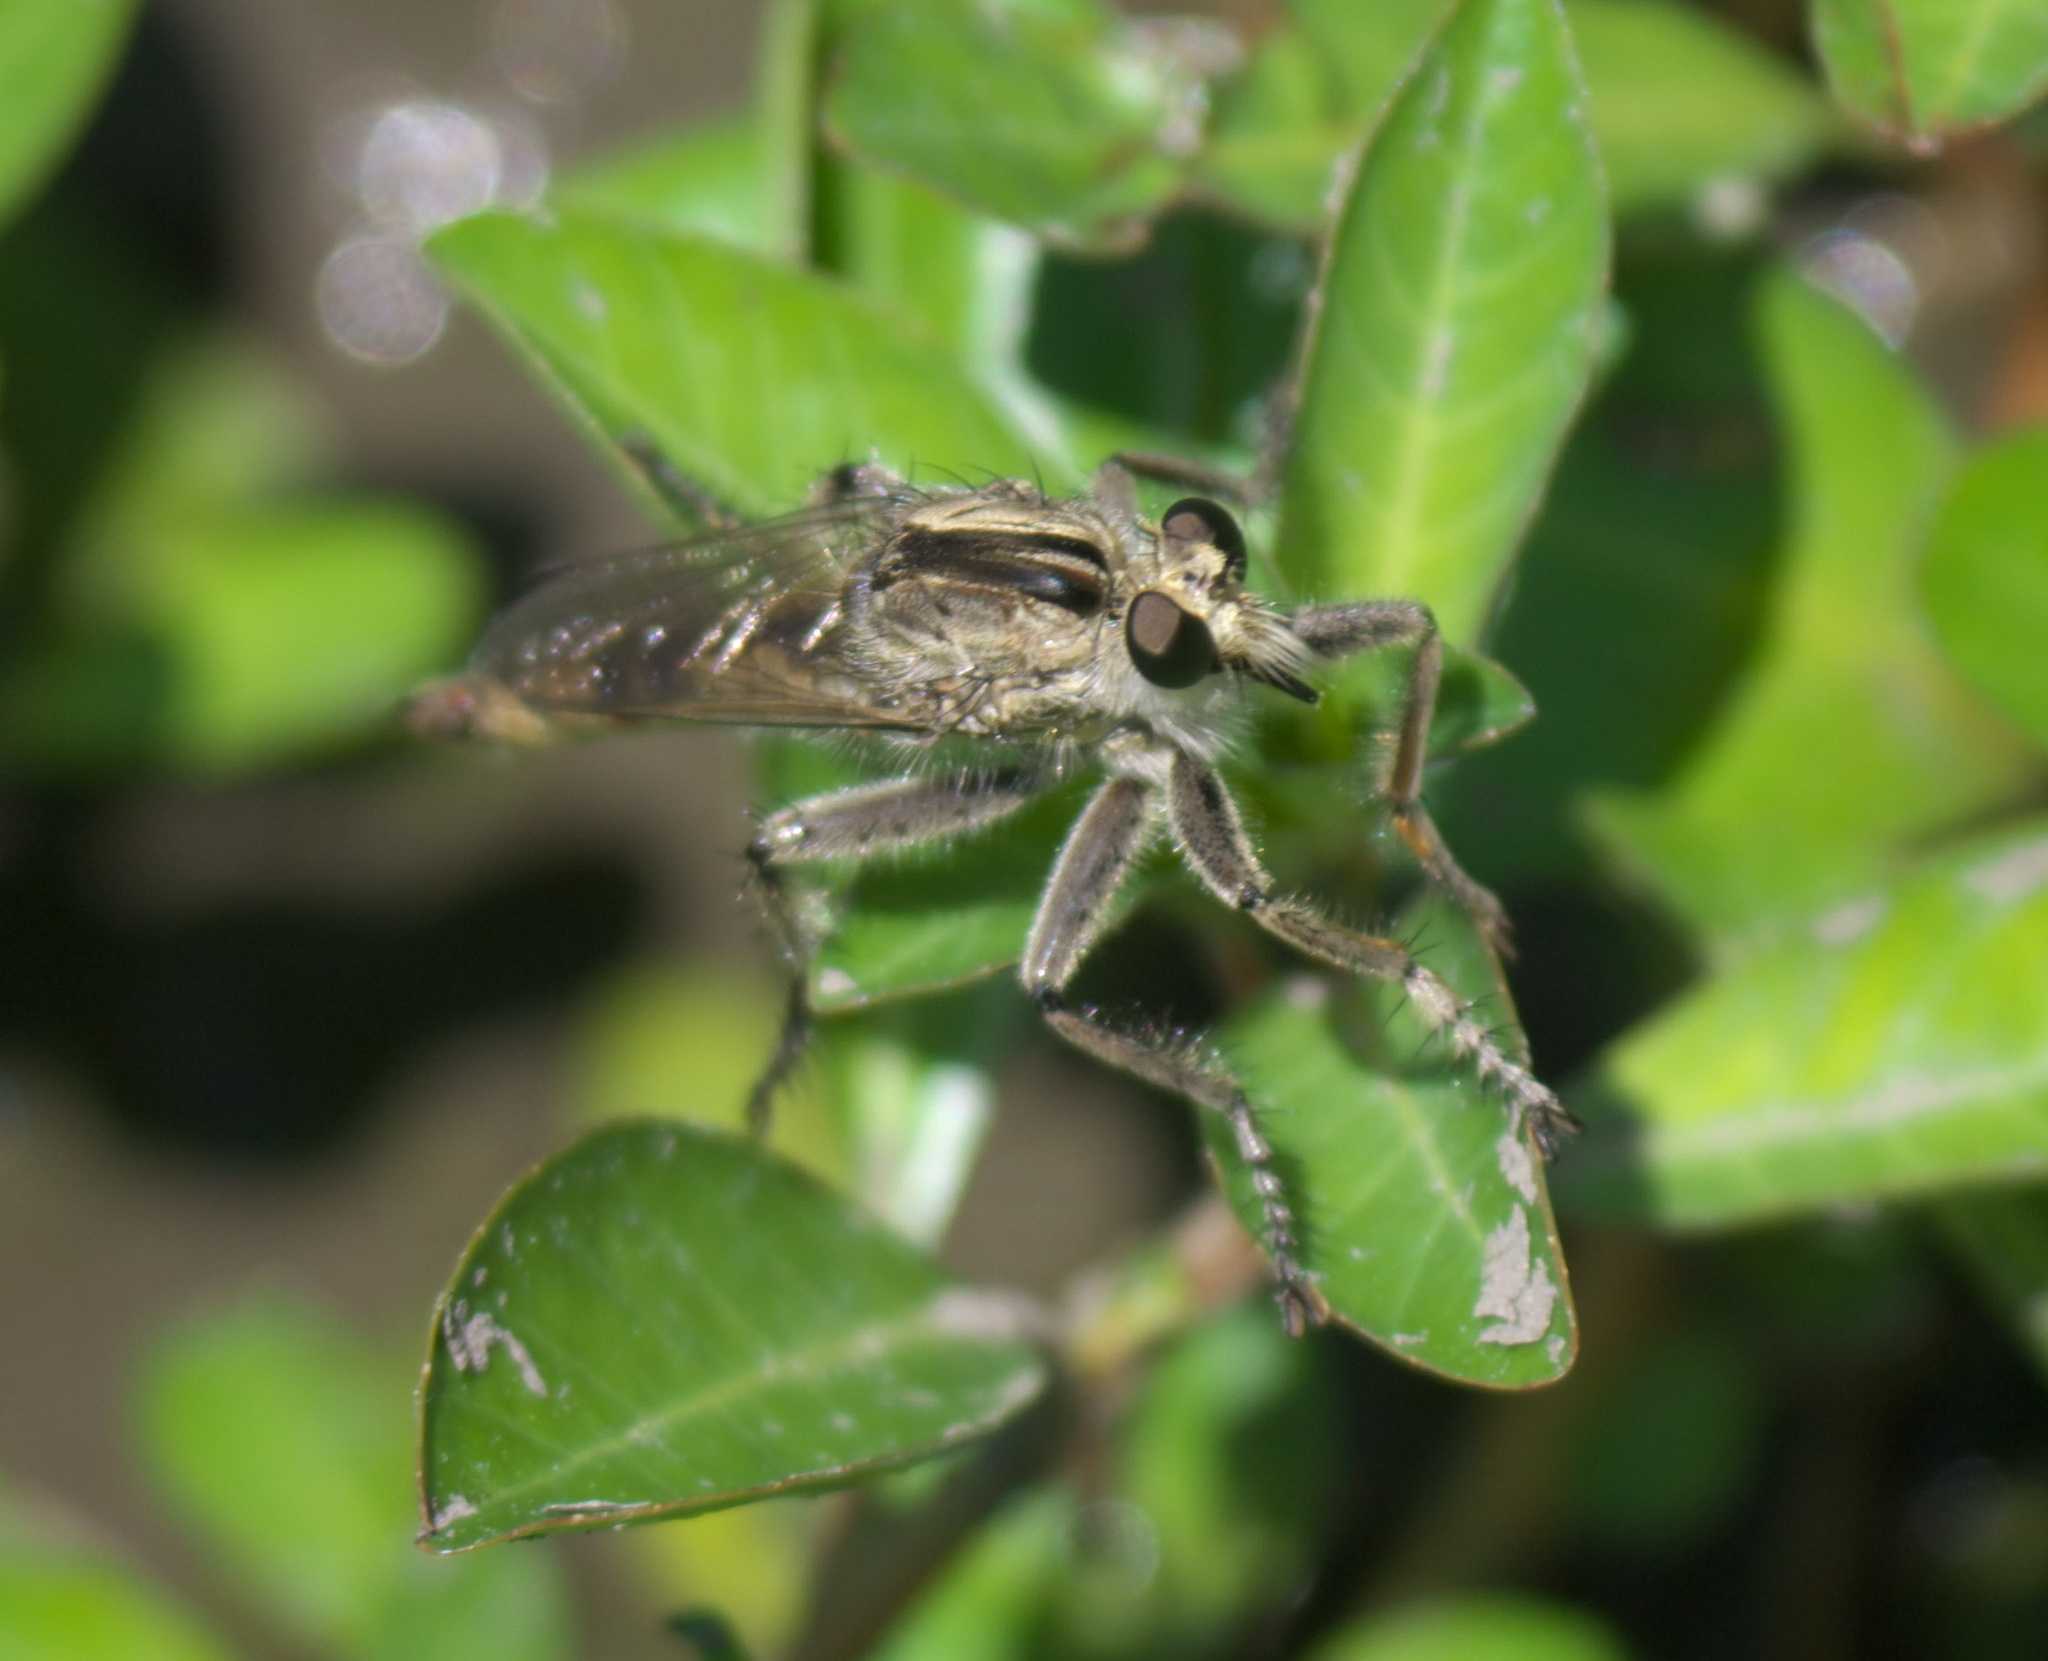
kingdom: Animalia
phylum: Arthropoda
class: Insecta
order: Diptera
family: Asilidae
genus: Triorla
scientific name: Triorla interrupta
